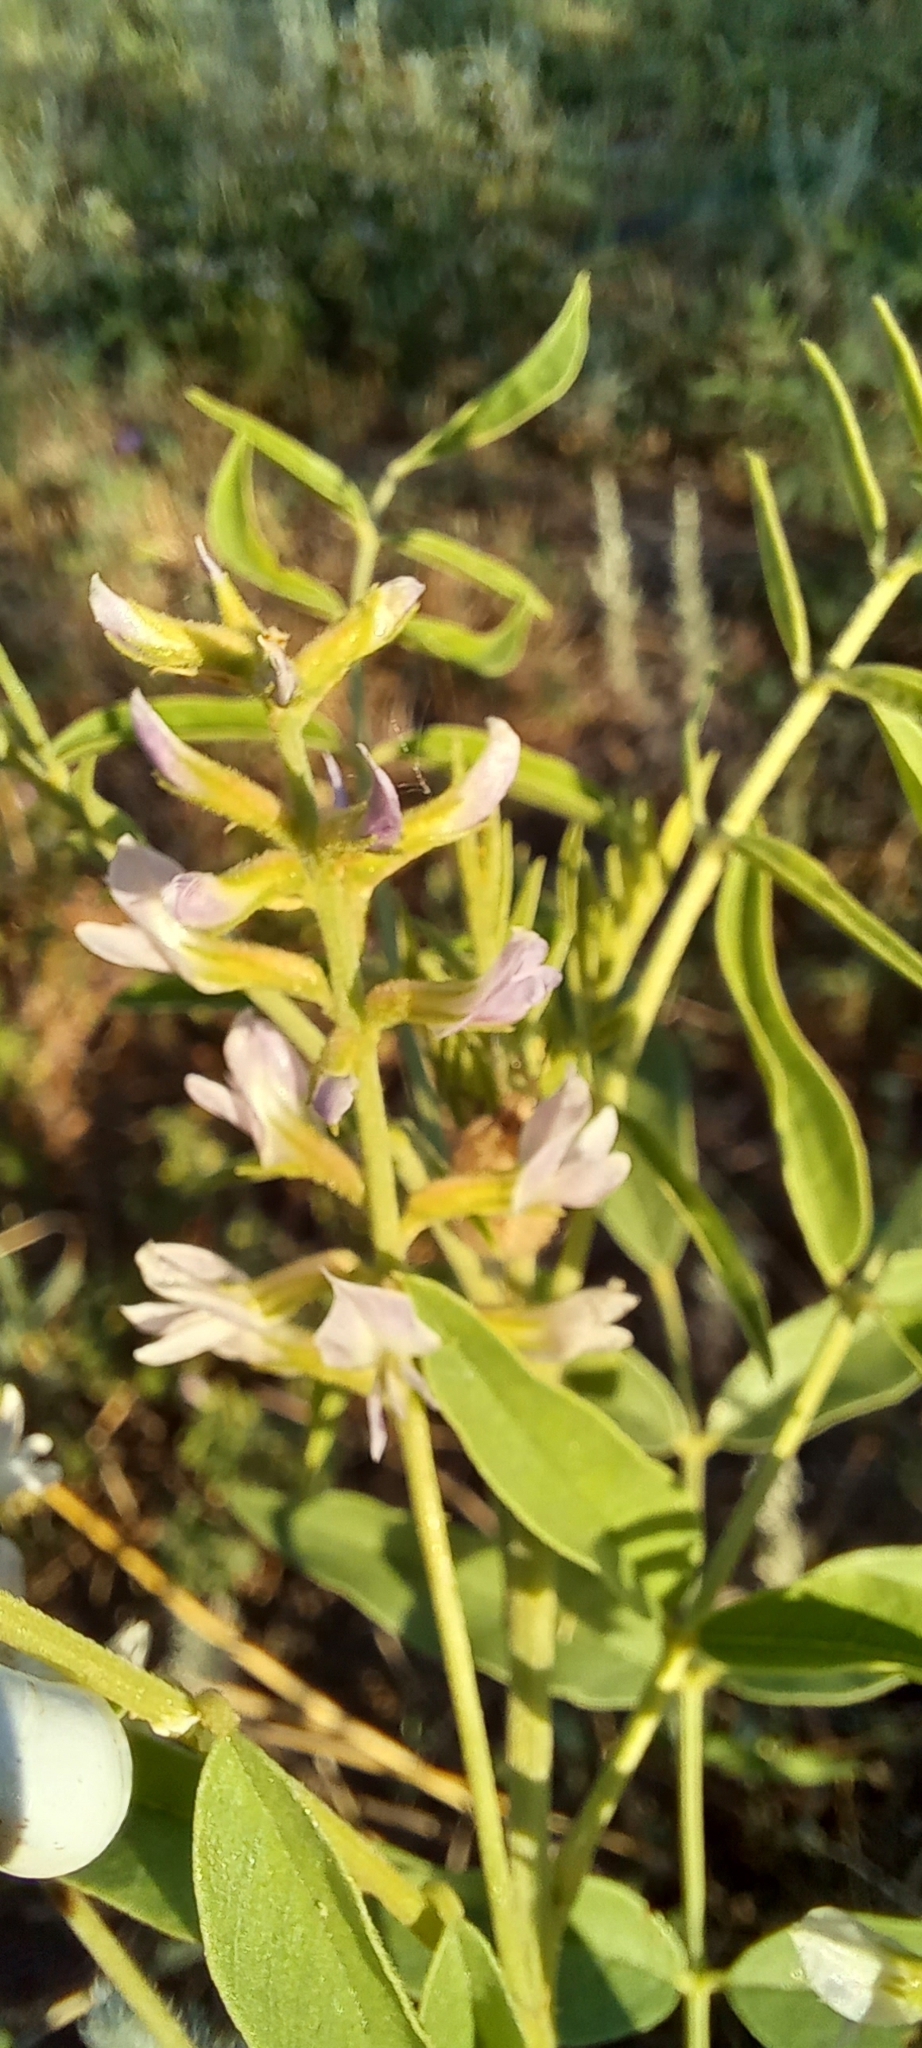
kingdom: Plantae
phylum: Tracheophyta
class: Magnoliopsida
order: Fabales
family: Fabaceae
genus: Glycyrrhiza
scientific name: Glycyrrhiza glabra
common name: Liquorice
